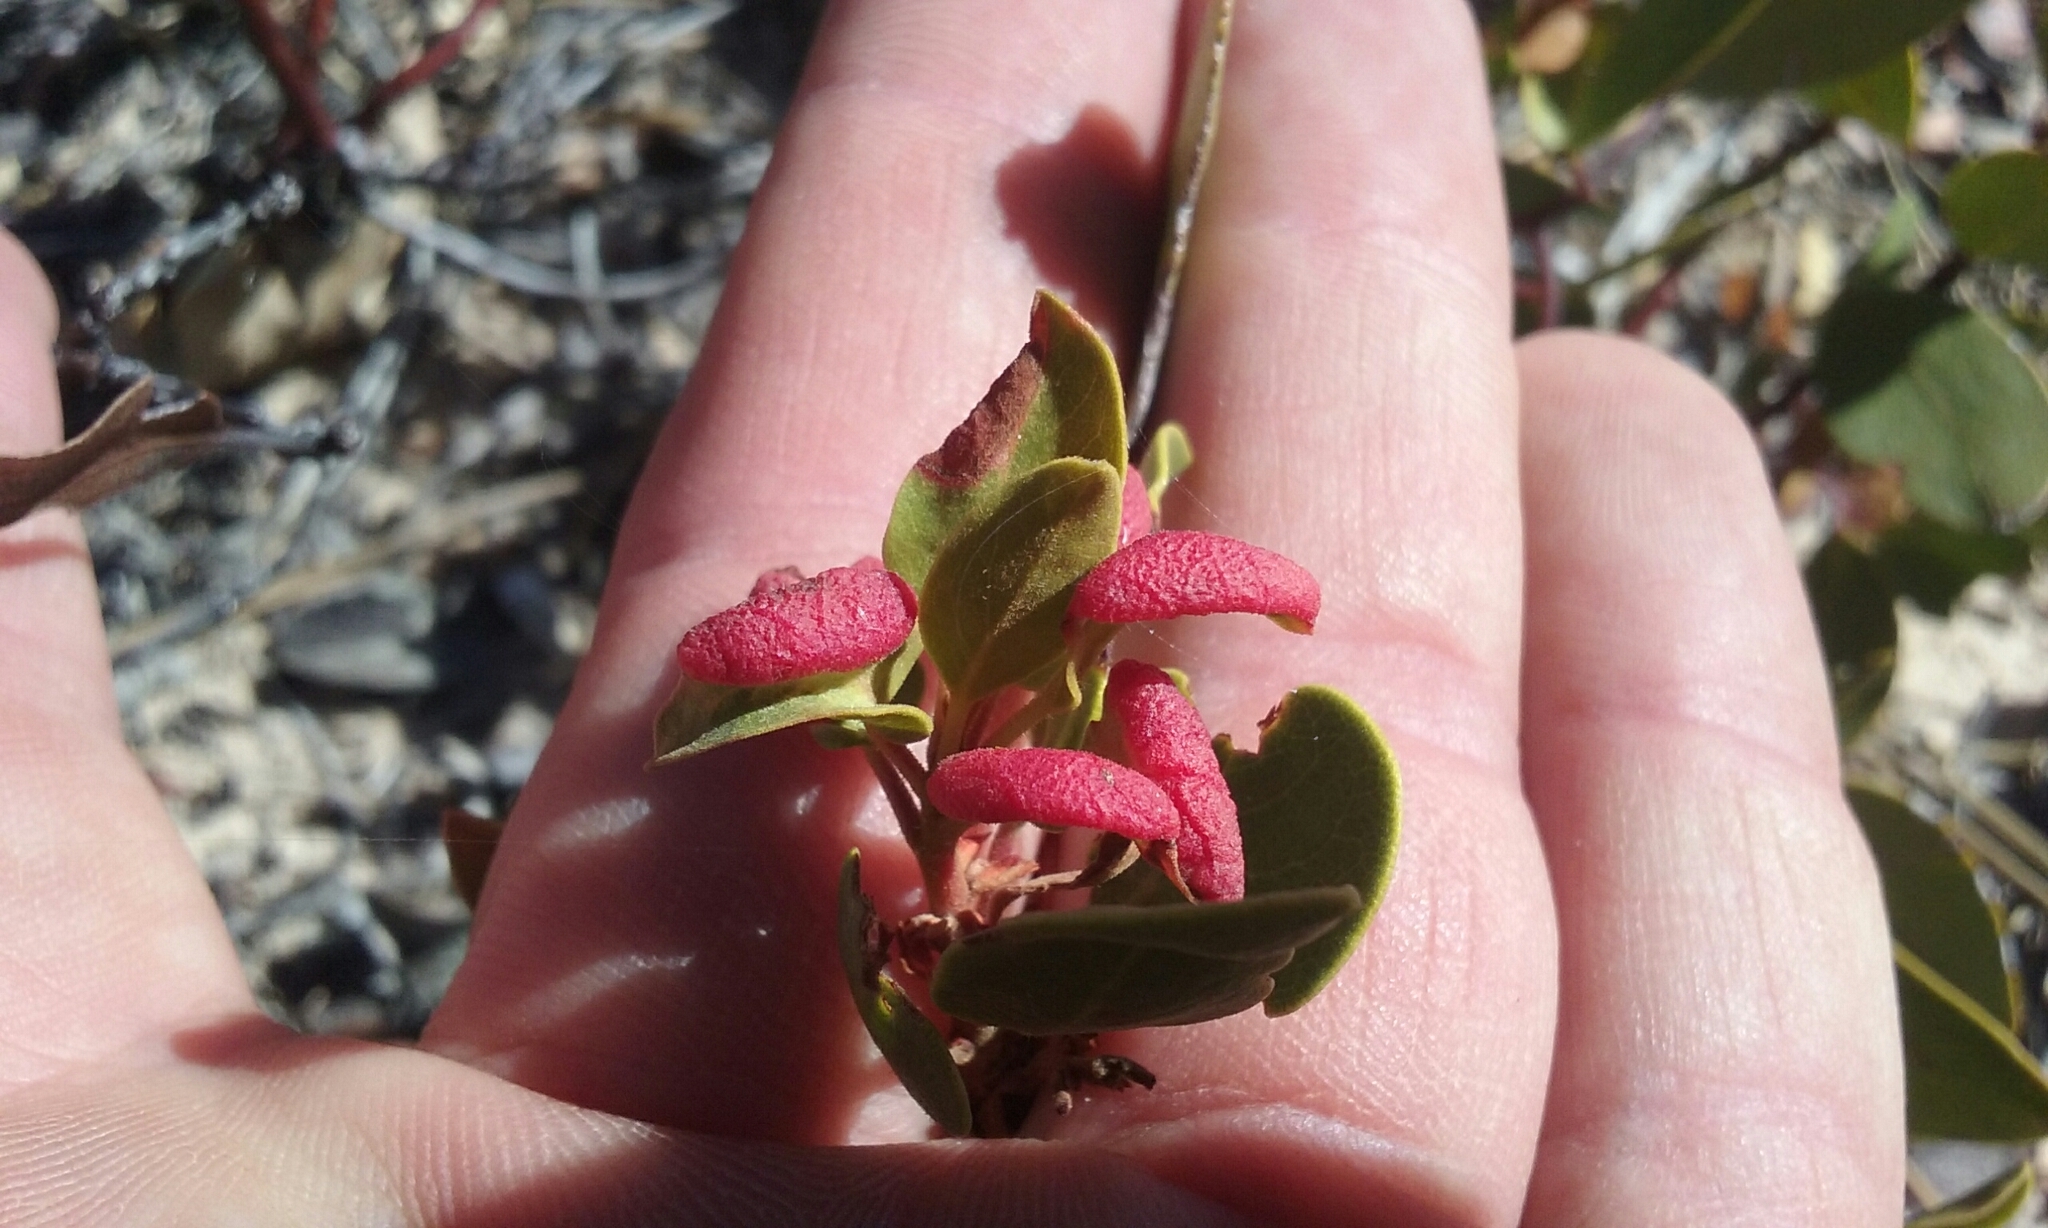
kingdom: Animalia
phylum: Arthropoda
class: Insecta
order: Hemiptera
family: Aphididae
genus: Tamalia
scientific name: Tamalia coweni
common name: Manzanita leafgall aphid
